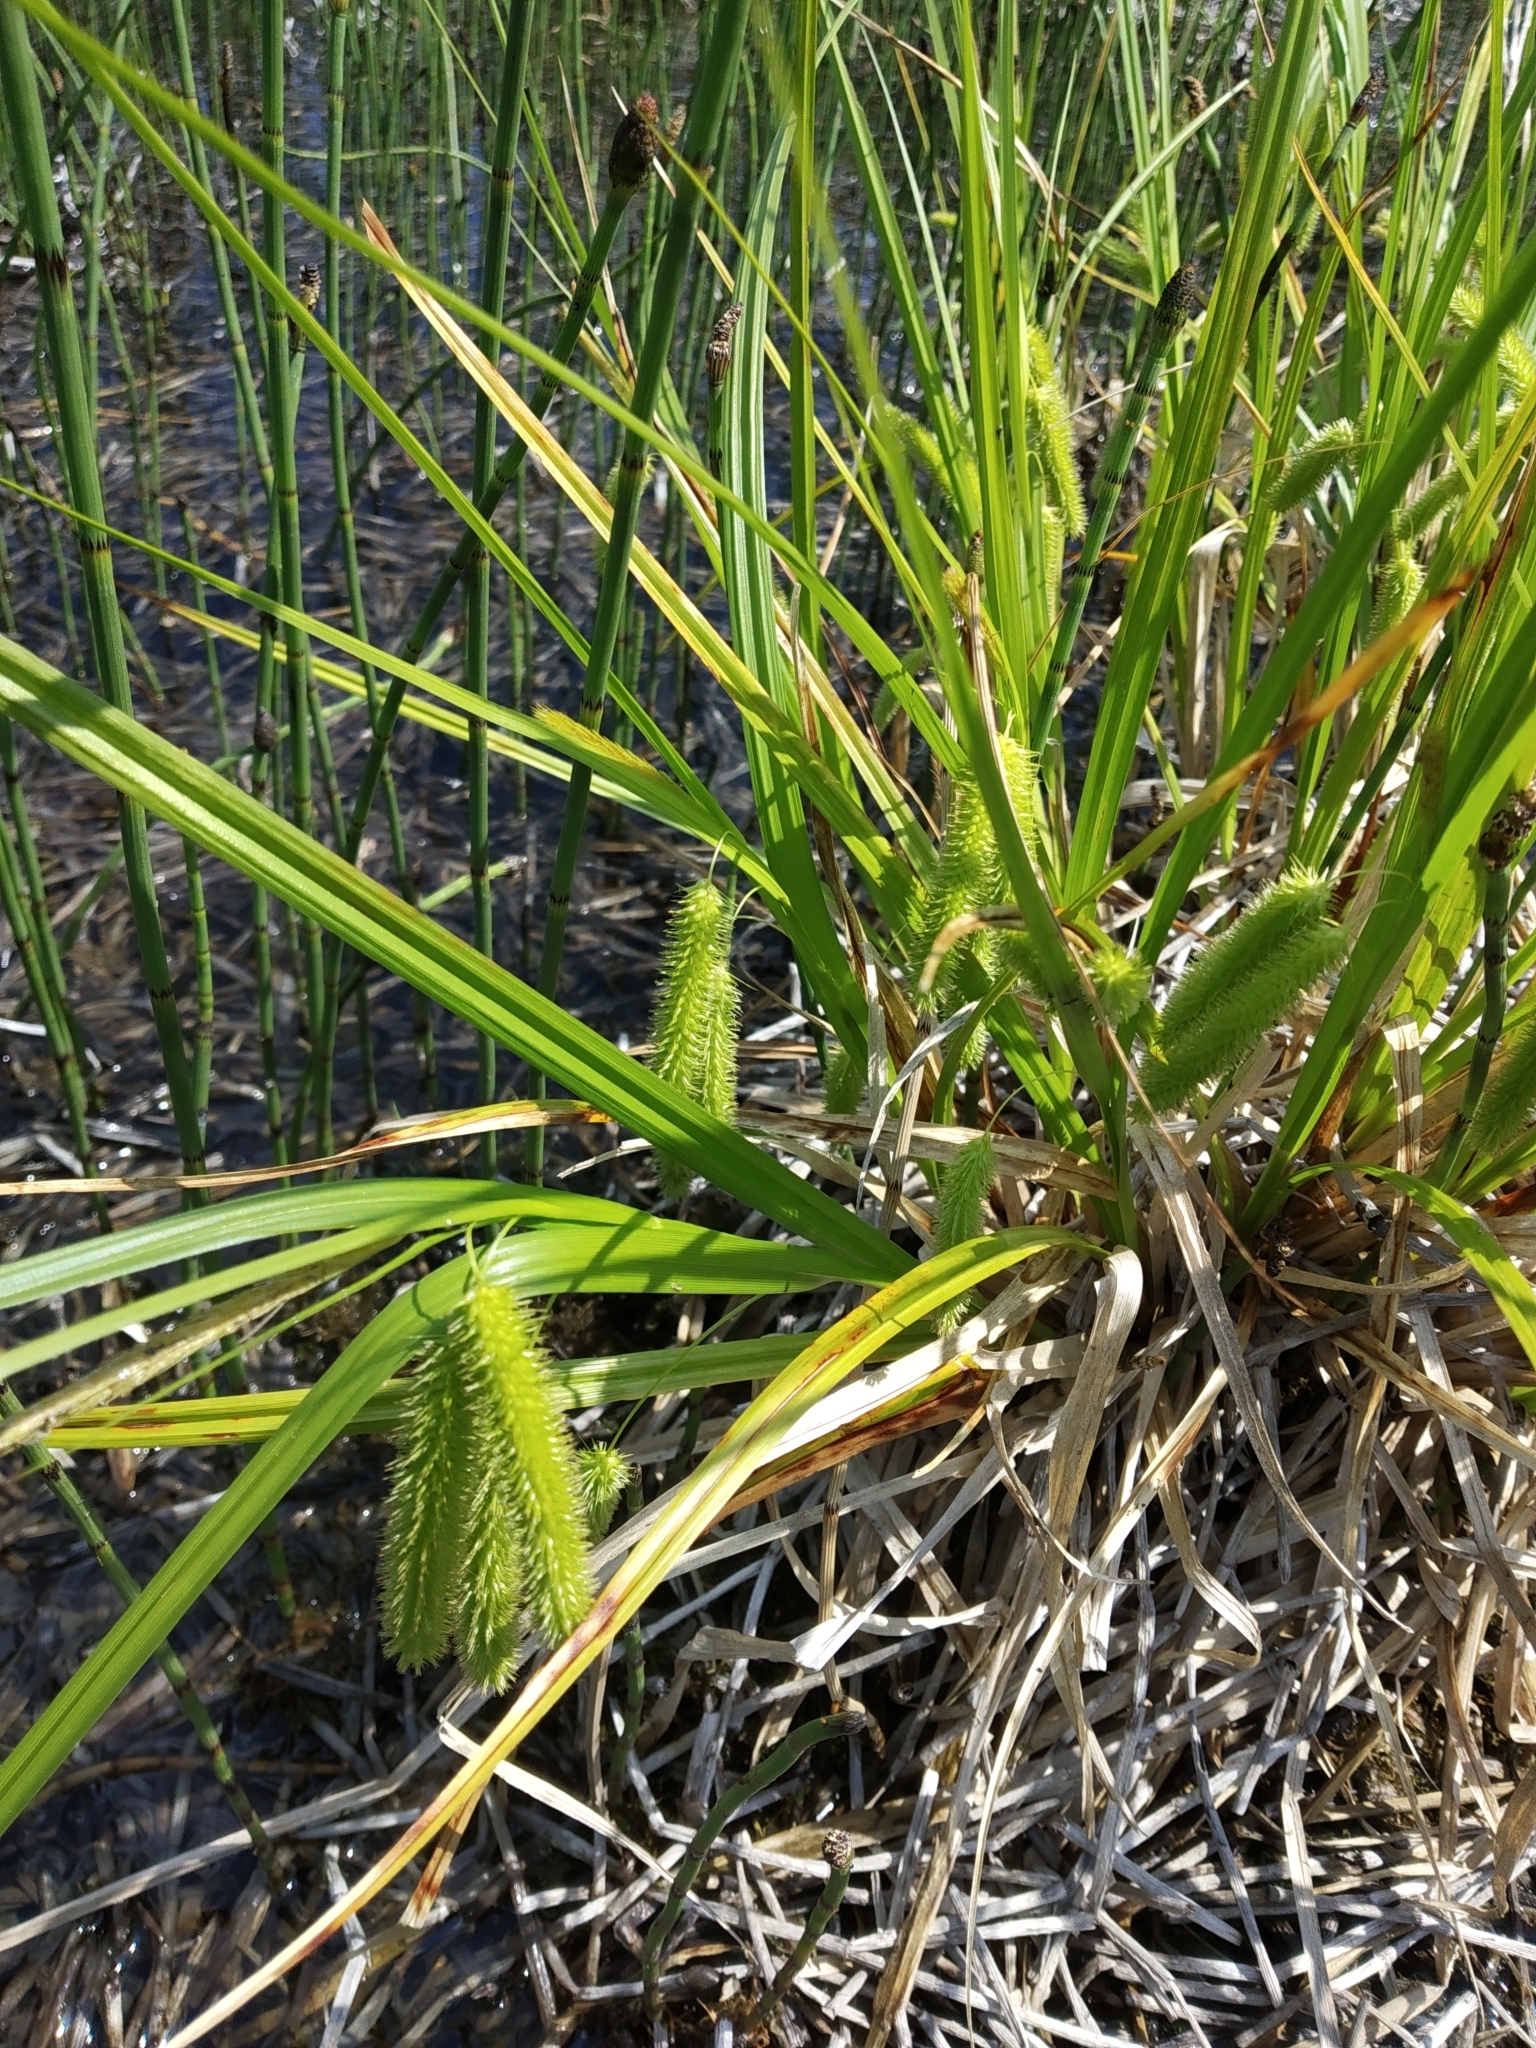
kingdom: Plantae
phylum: Tracheophyta
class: Liliopsida
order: Poales
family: Cyperaceae
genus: Carex
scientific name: Carex pseudocyperus
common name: Cyperus sedge
